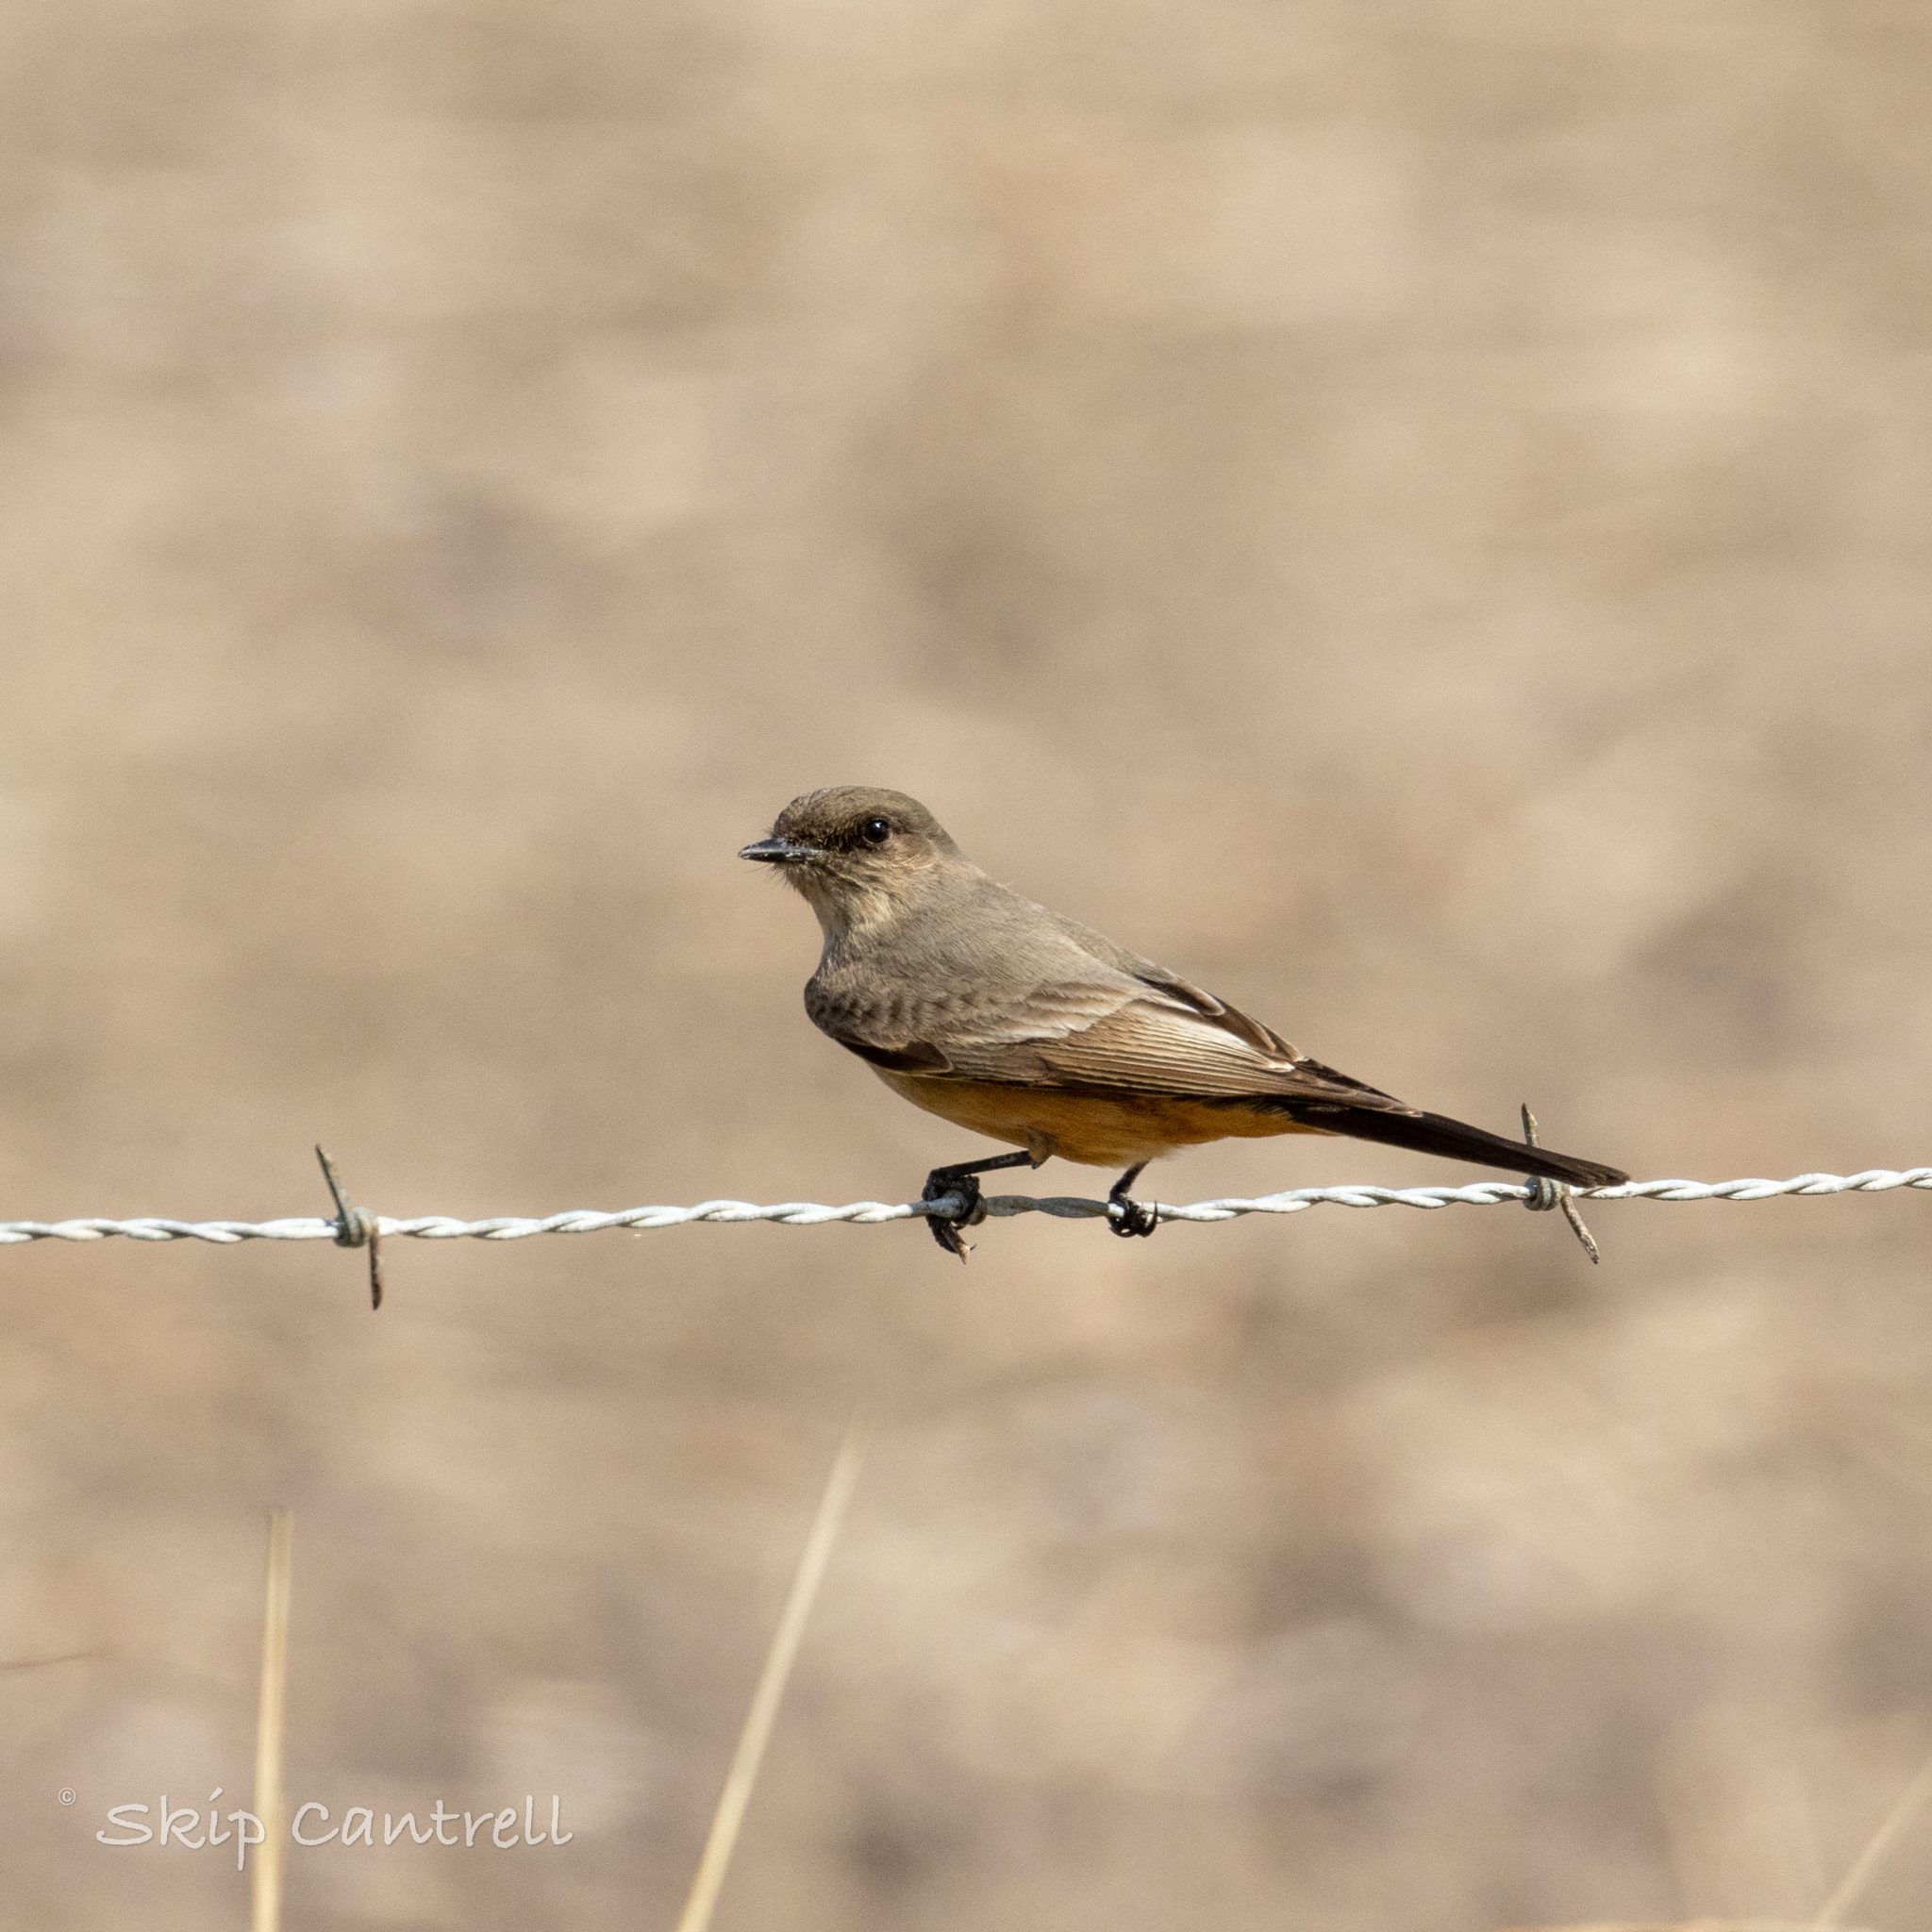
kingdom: Animalia
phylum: Chordata
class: Aves
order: Passeriformes
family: Tyrannidae
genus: Sayornis
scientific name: Sayornis saya
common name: Say's phoebe
